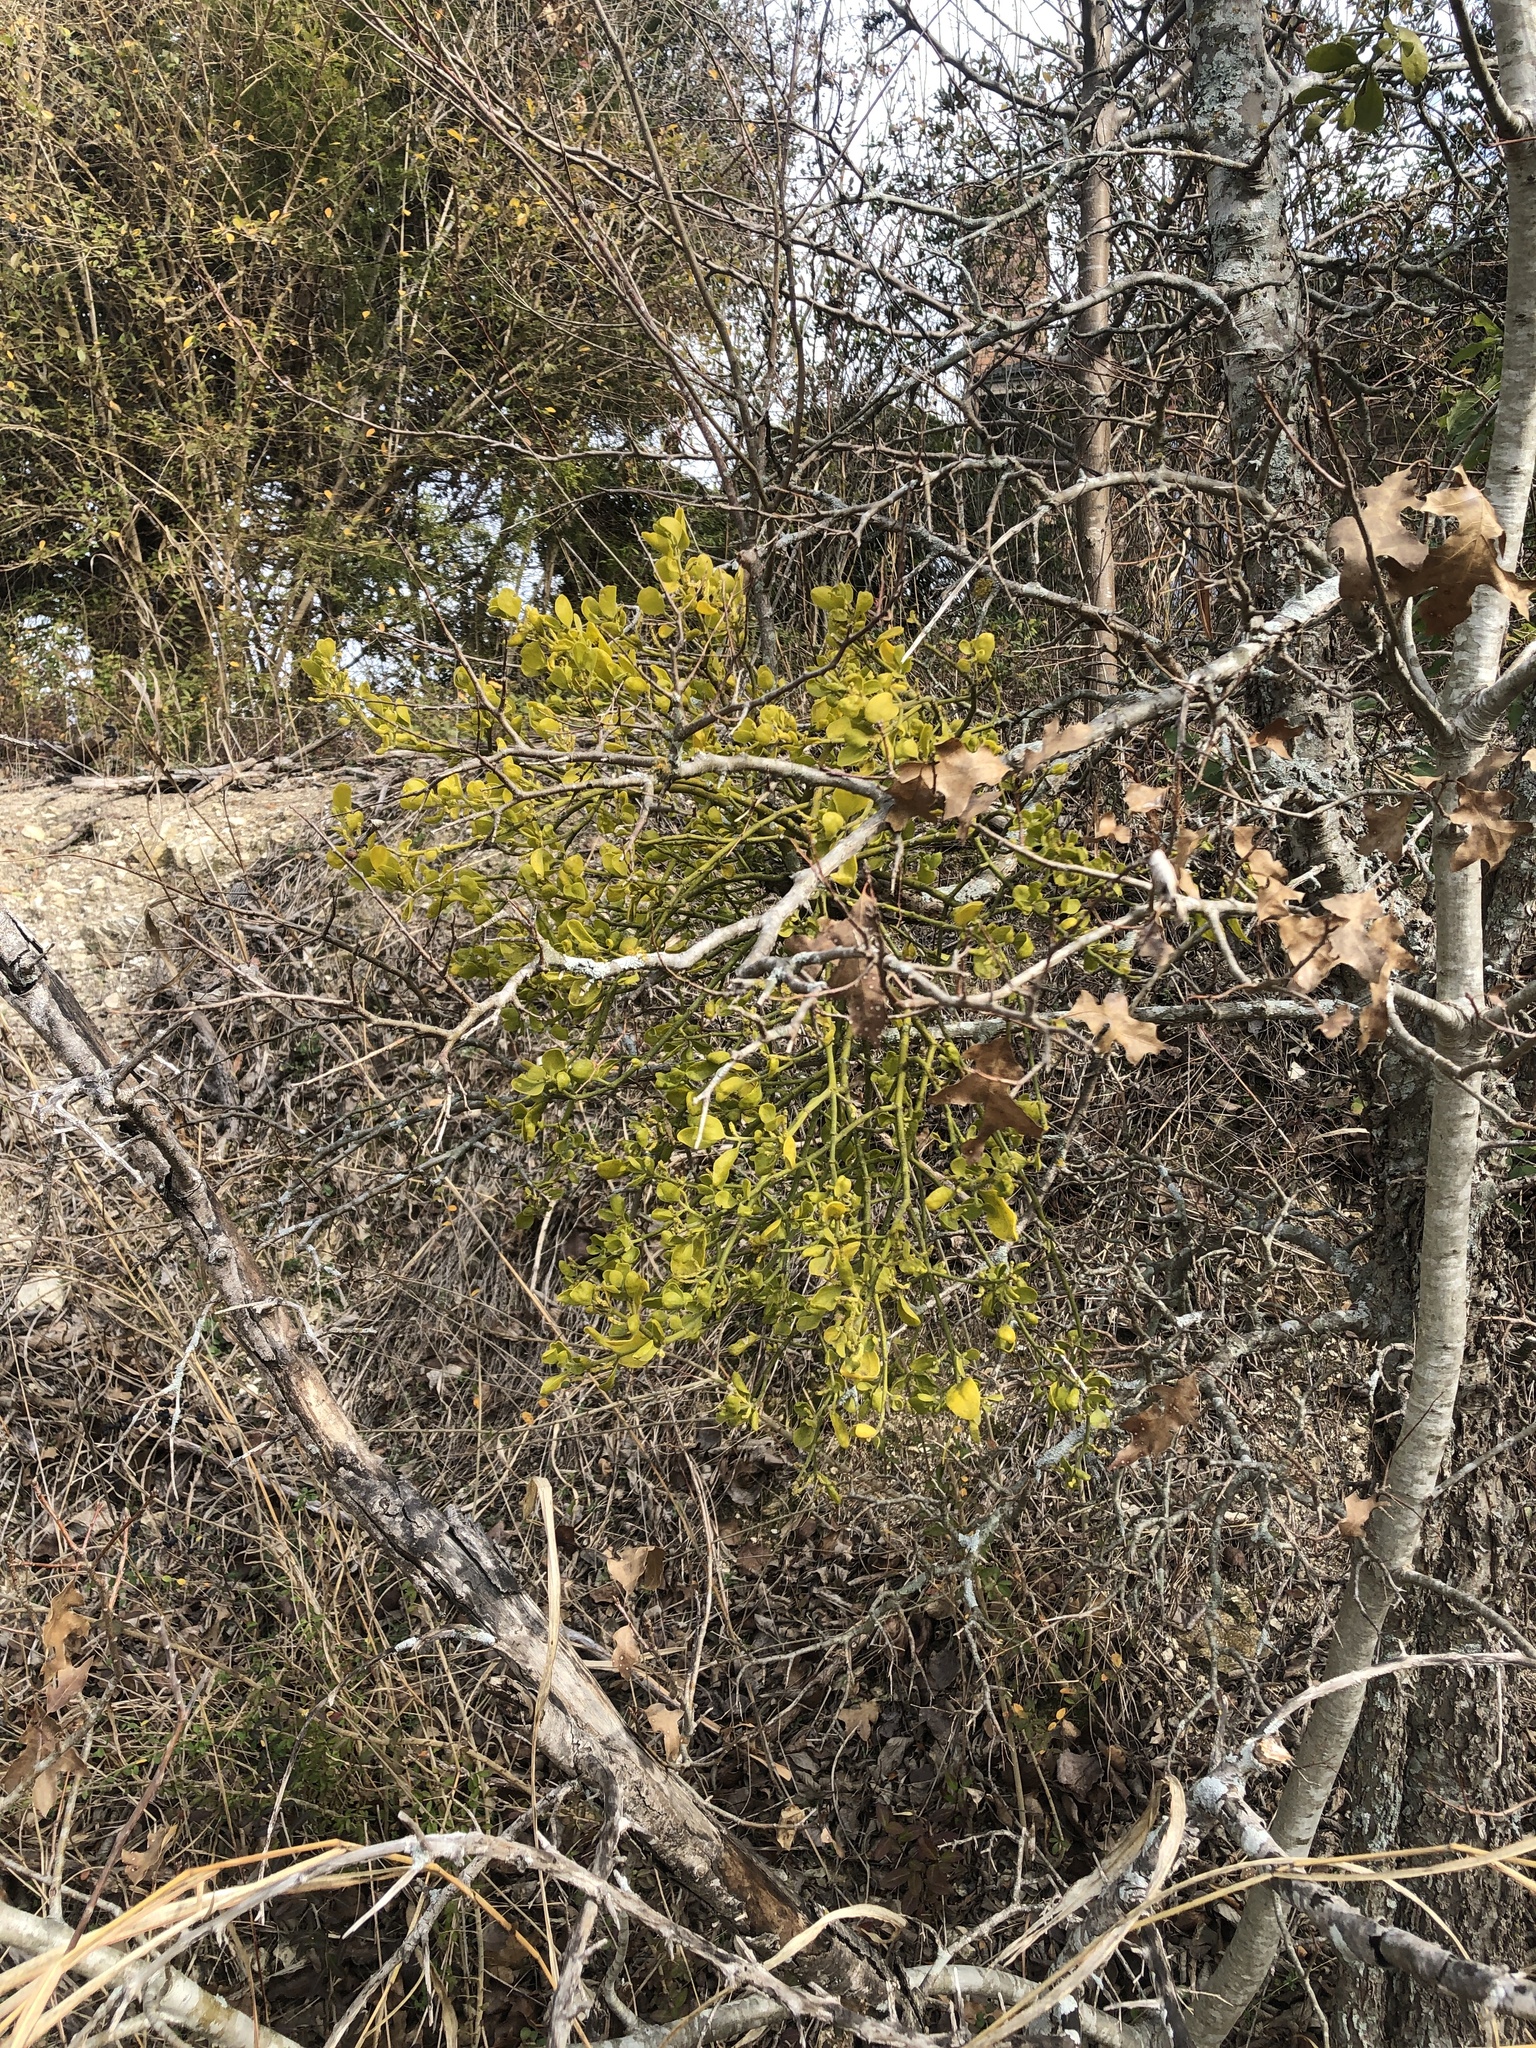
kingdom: Plantae
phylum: Tracheophyta
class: Magnoliopsida
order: Santalales
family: Viscaceae
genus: Phoradendron
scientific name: Phoradendron leucarpum
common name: Pacific mistletoe
